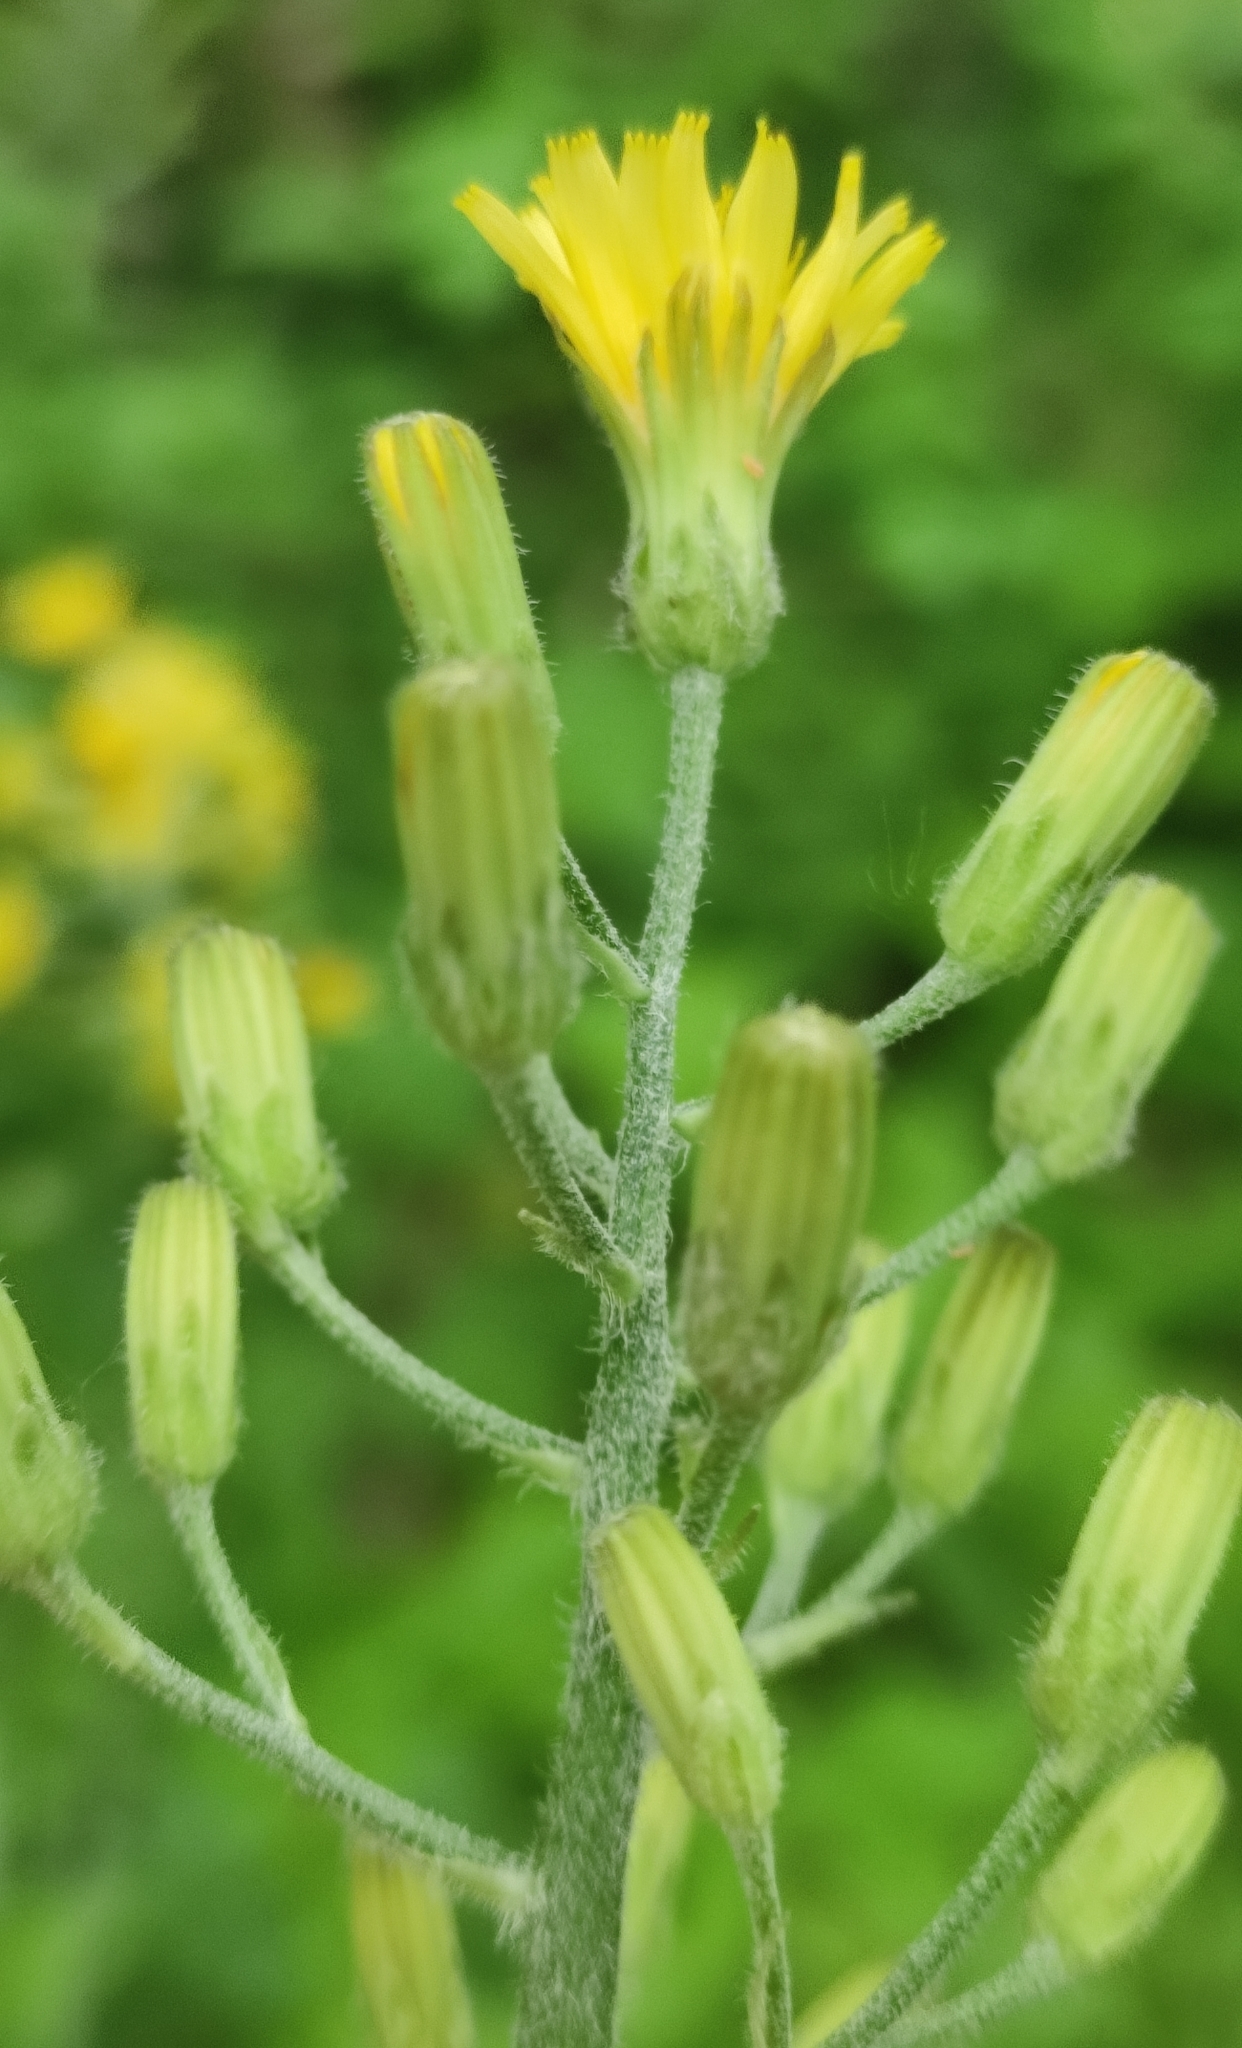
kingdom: Plantae
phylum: Tracheophyta
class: Magnoliopsida
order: Asterales
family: Asteraceae
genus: Crepis
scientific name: Crepis praemorsa
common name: Leafless hawk's-beard
